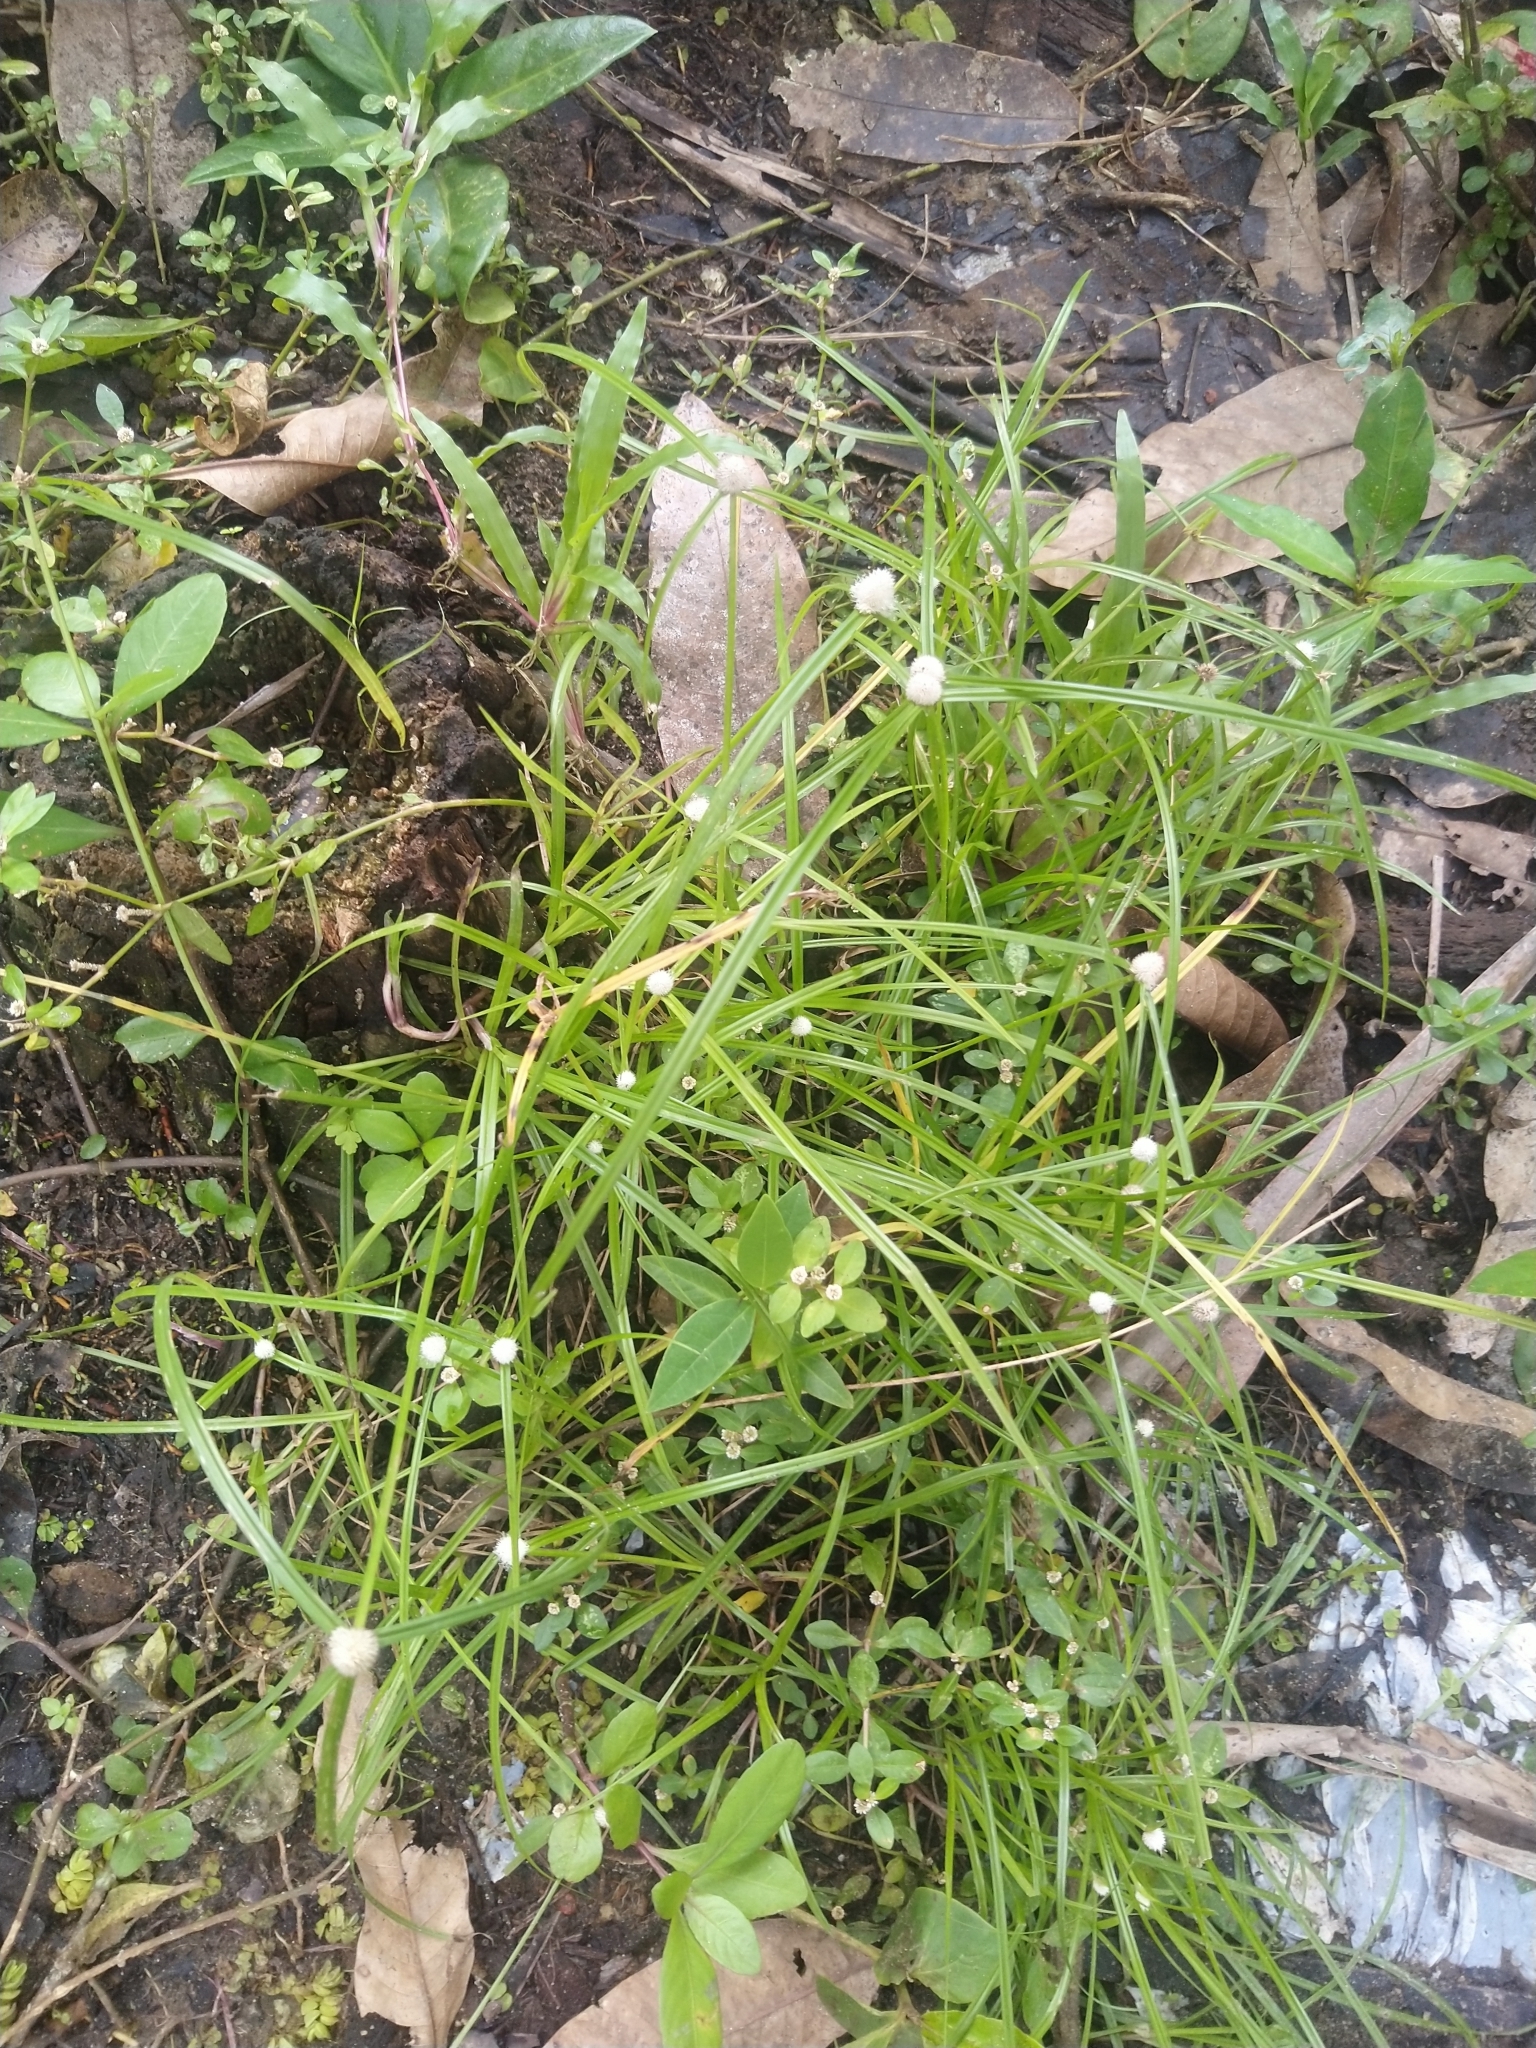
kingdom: Plantae
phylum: Tracheophyta
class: Liliopsida
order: Poales
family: Cyperaceae
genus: Cyperus
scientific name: Cyperus mindorensis
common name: Flatsedge
